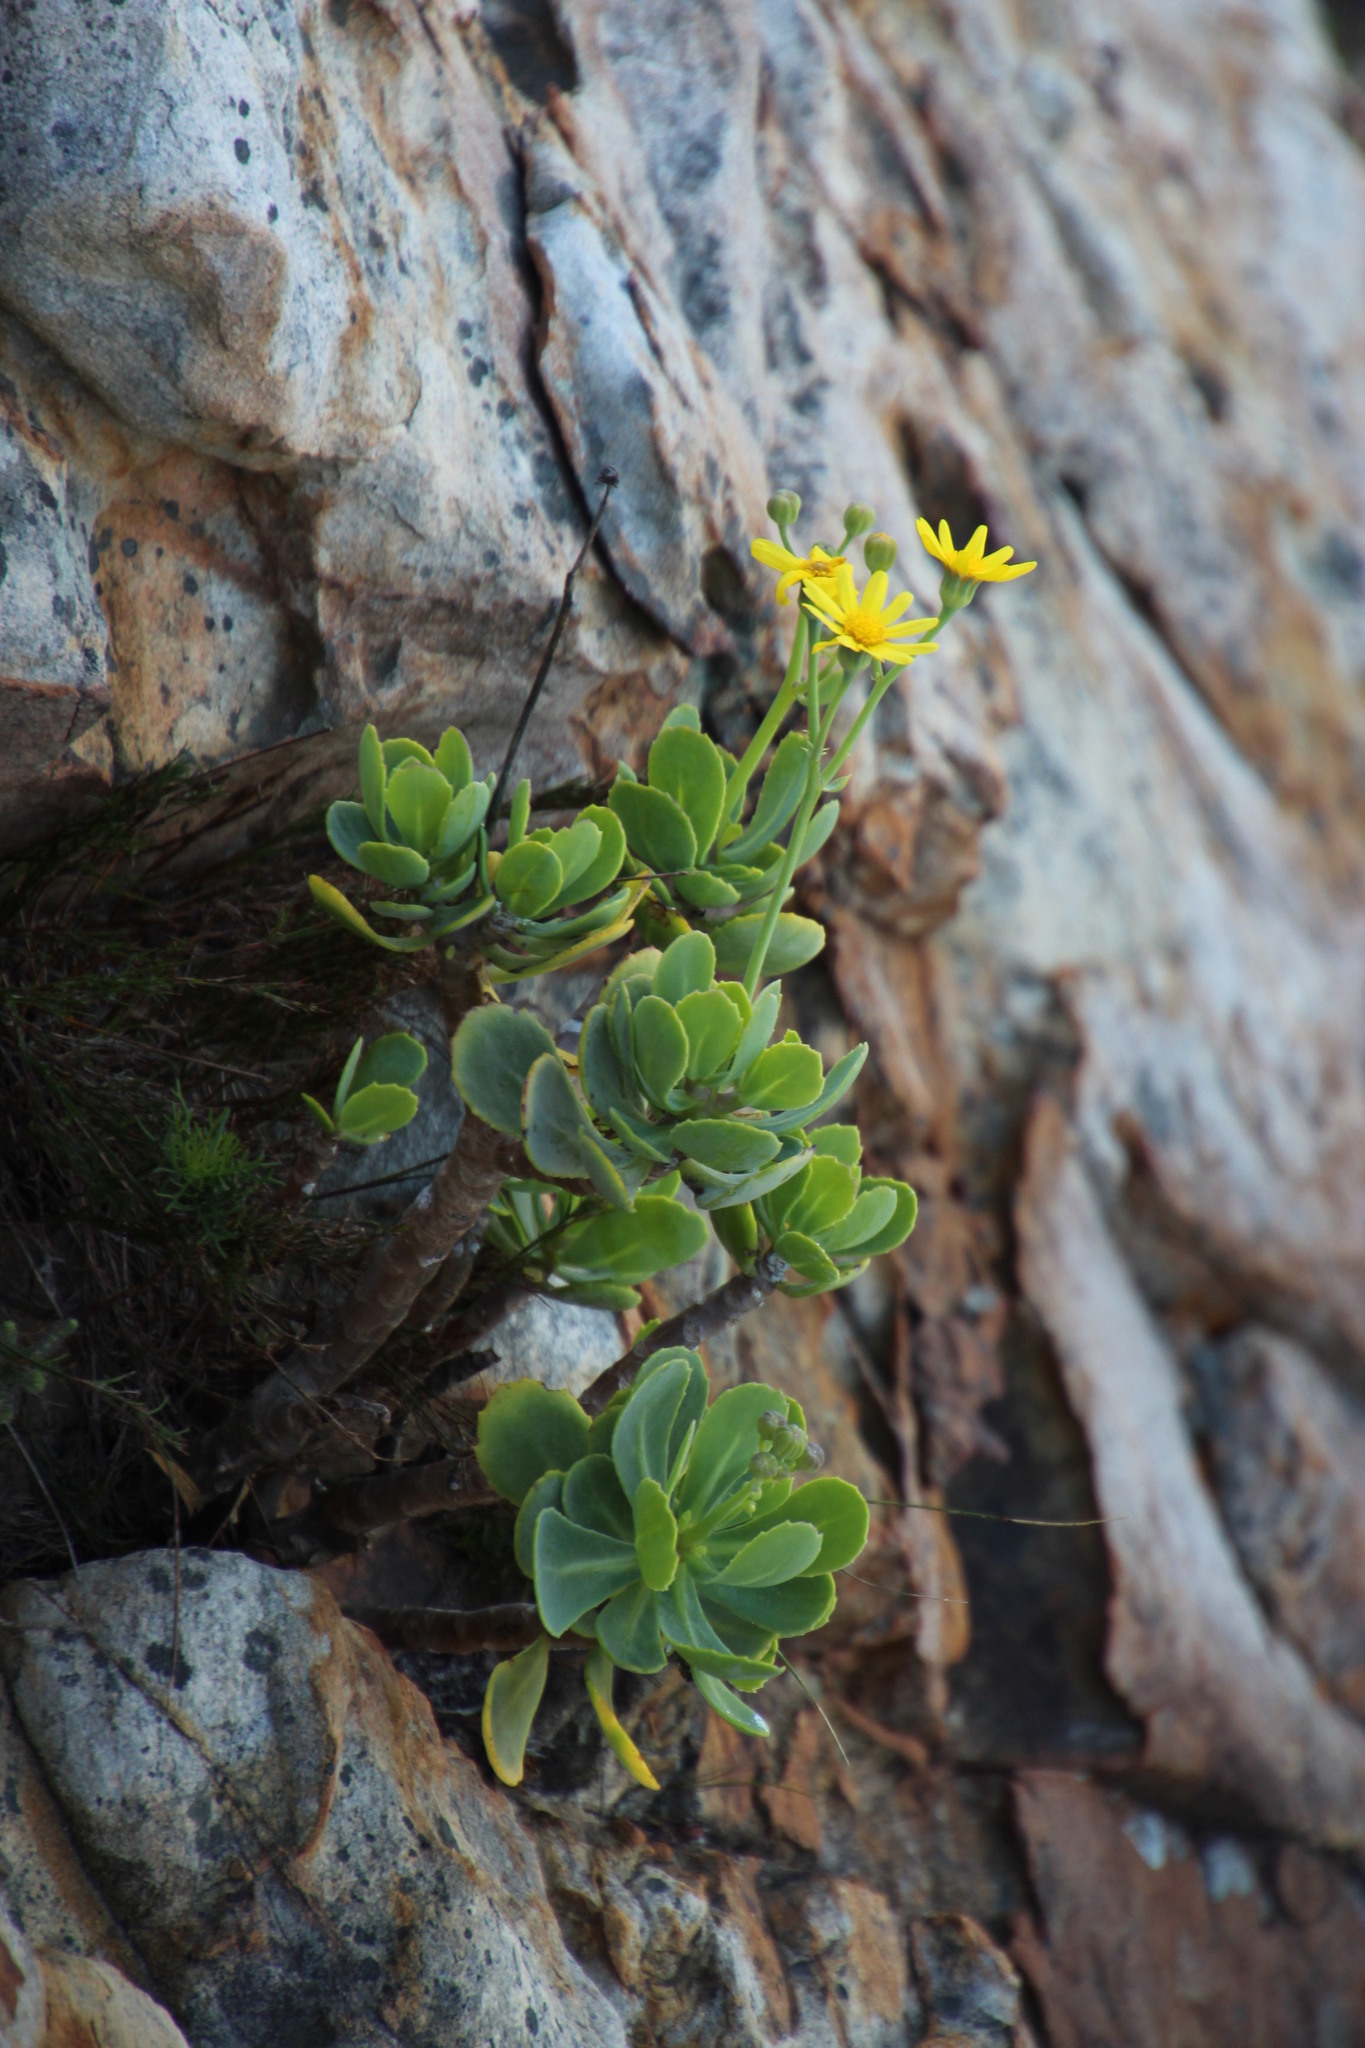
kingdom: Plantae
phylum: Tracheophyta
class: Magnoliopsida
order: Asterales
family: Asteraceae
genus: Othonna
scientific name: Othonna dentata
